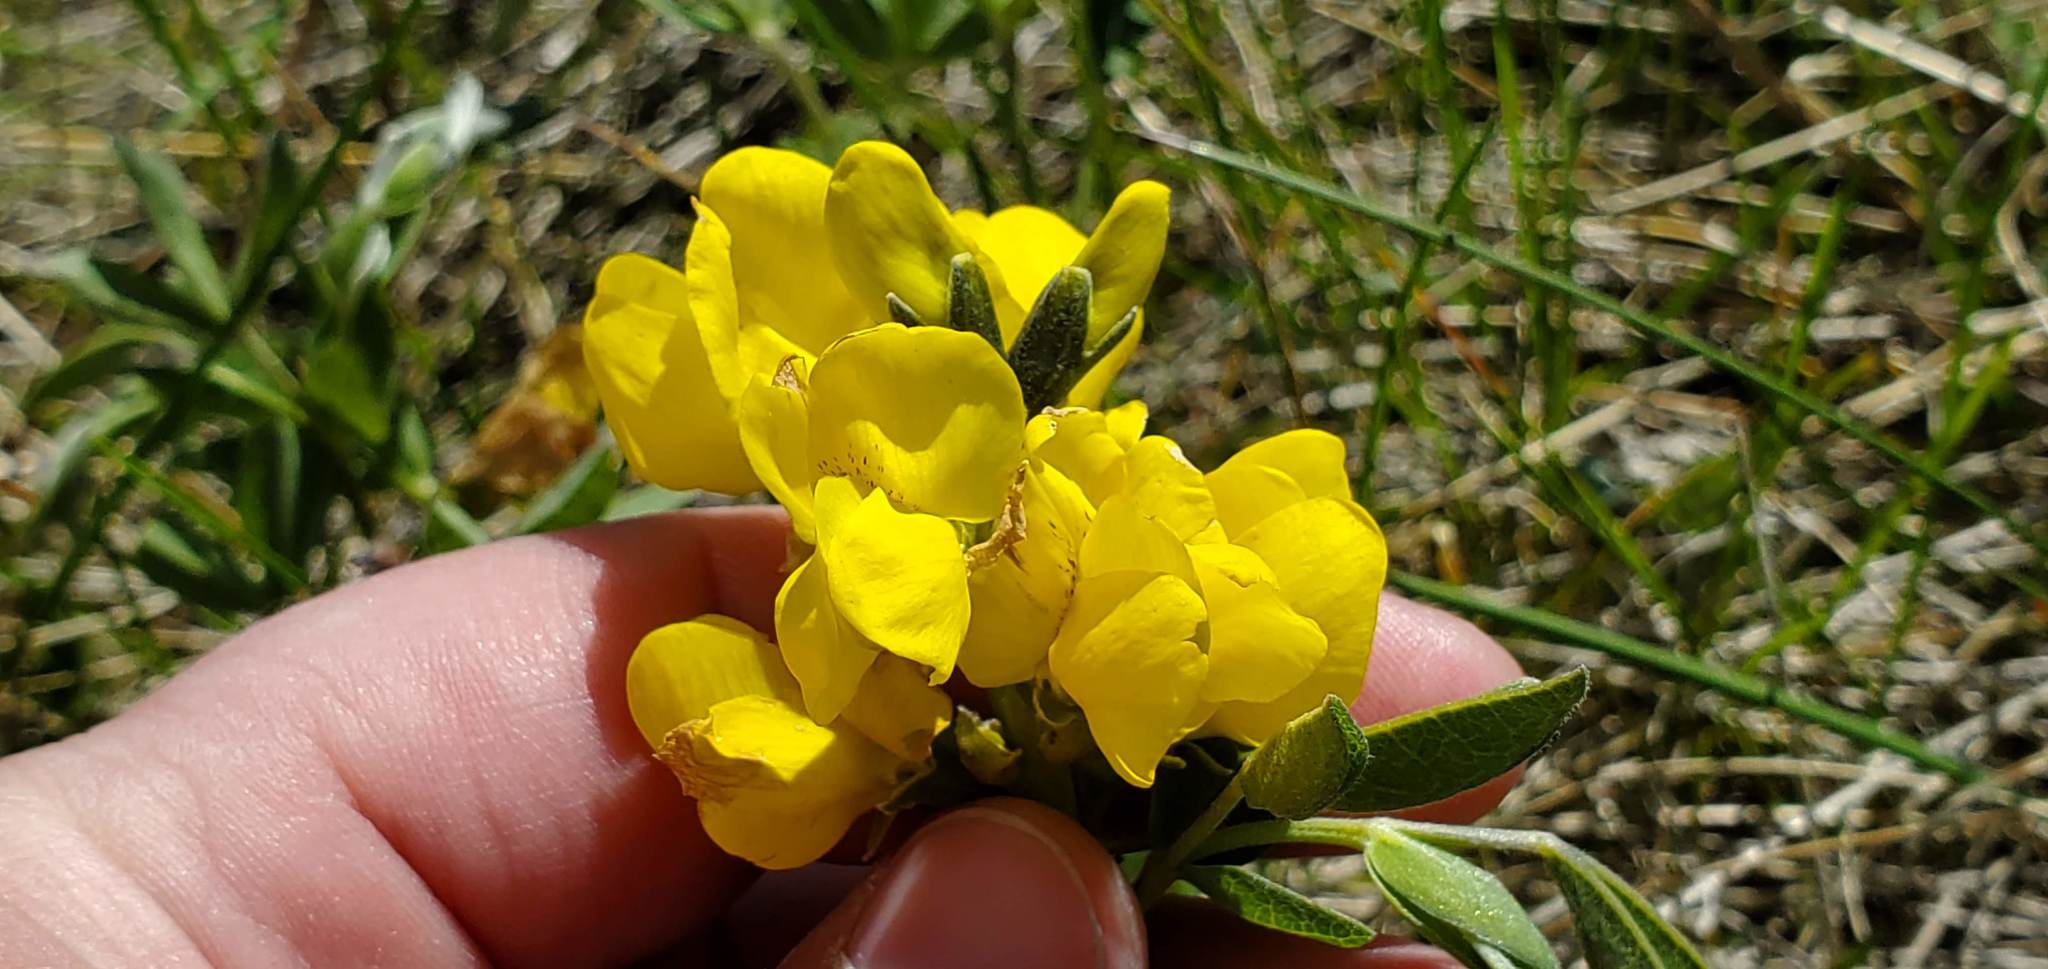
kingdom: Plantae
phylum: Tracheophyta
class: Magnoliopsida
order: Fabales
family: Fabaceae
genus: Thermopsis
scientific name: Thermopsis rhombifolia
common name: Circle-pod-pea
